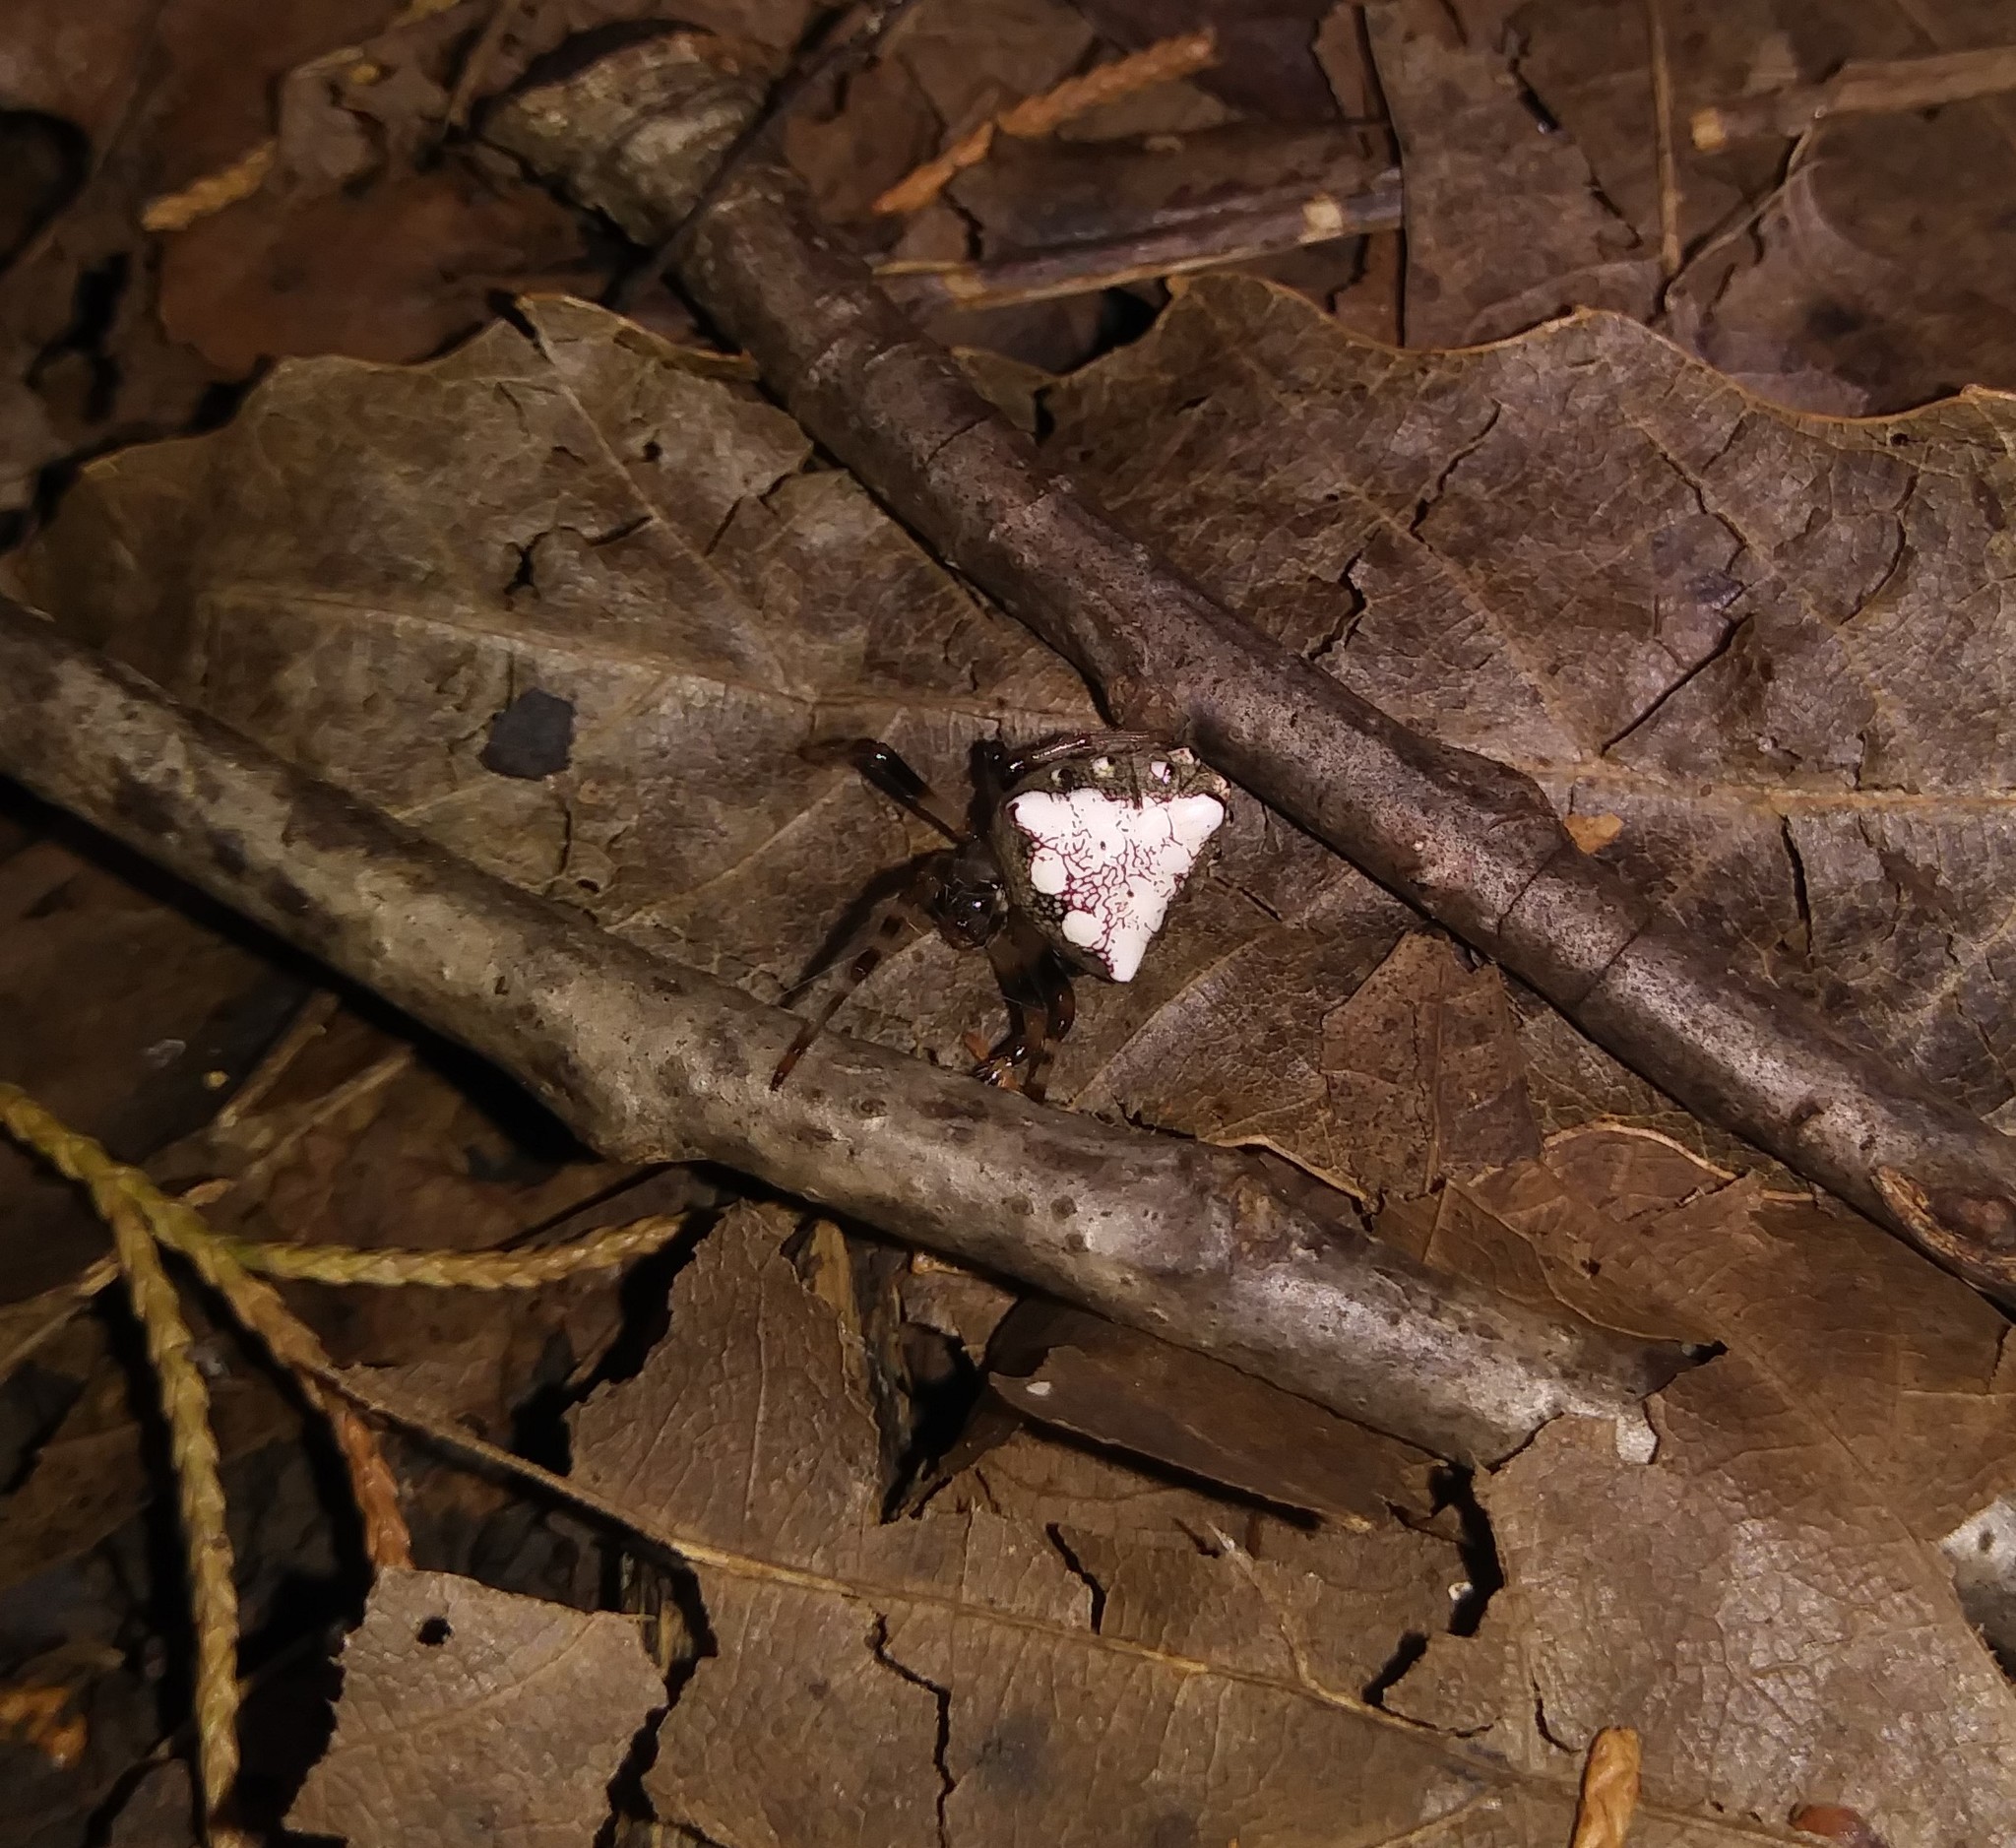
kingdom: Animalia
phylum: Arthropoda
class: Arachnida
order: Araneae
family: Araneidae
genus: Verrucosa
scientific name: Verrucosa arenata
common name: Orb weavers
